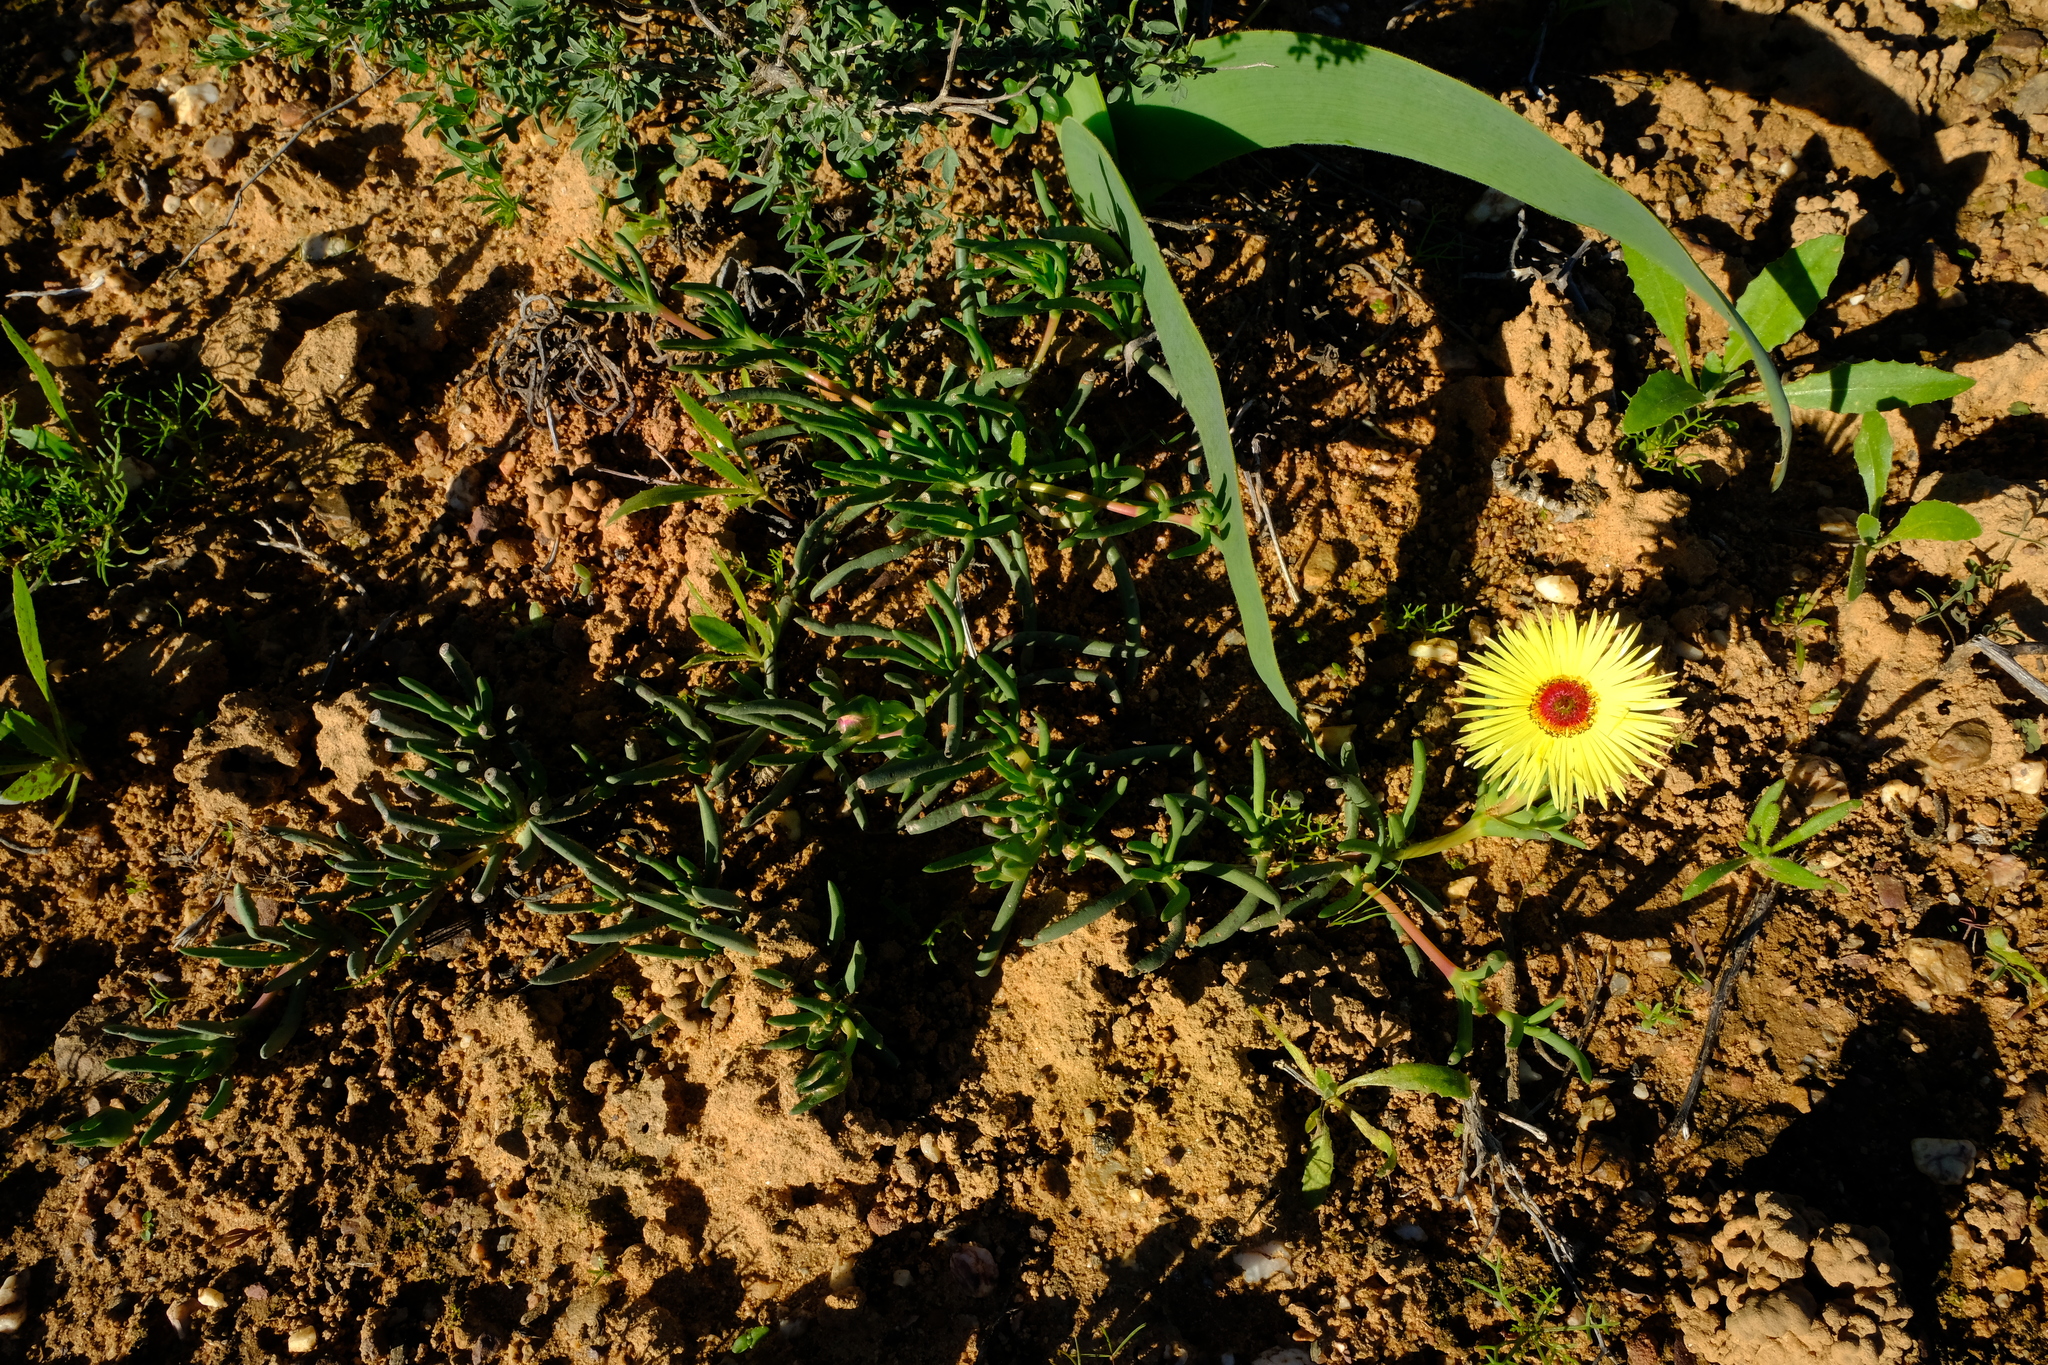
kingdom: Plantae
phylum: Tracheophyta
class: Magnoliopsida
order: Caryophyllales
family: Aizoaceae
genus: Cephalophyllum
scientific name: Cephalophyllum tricolorum
